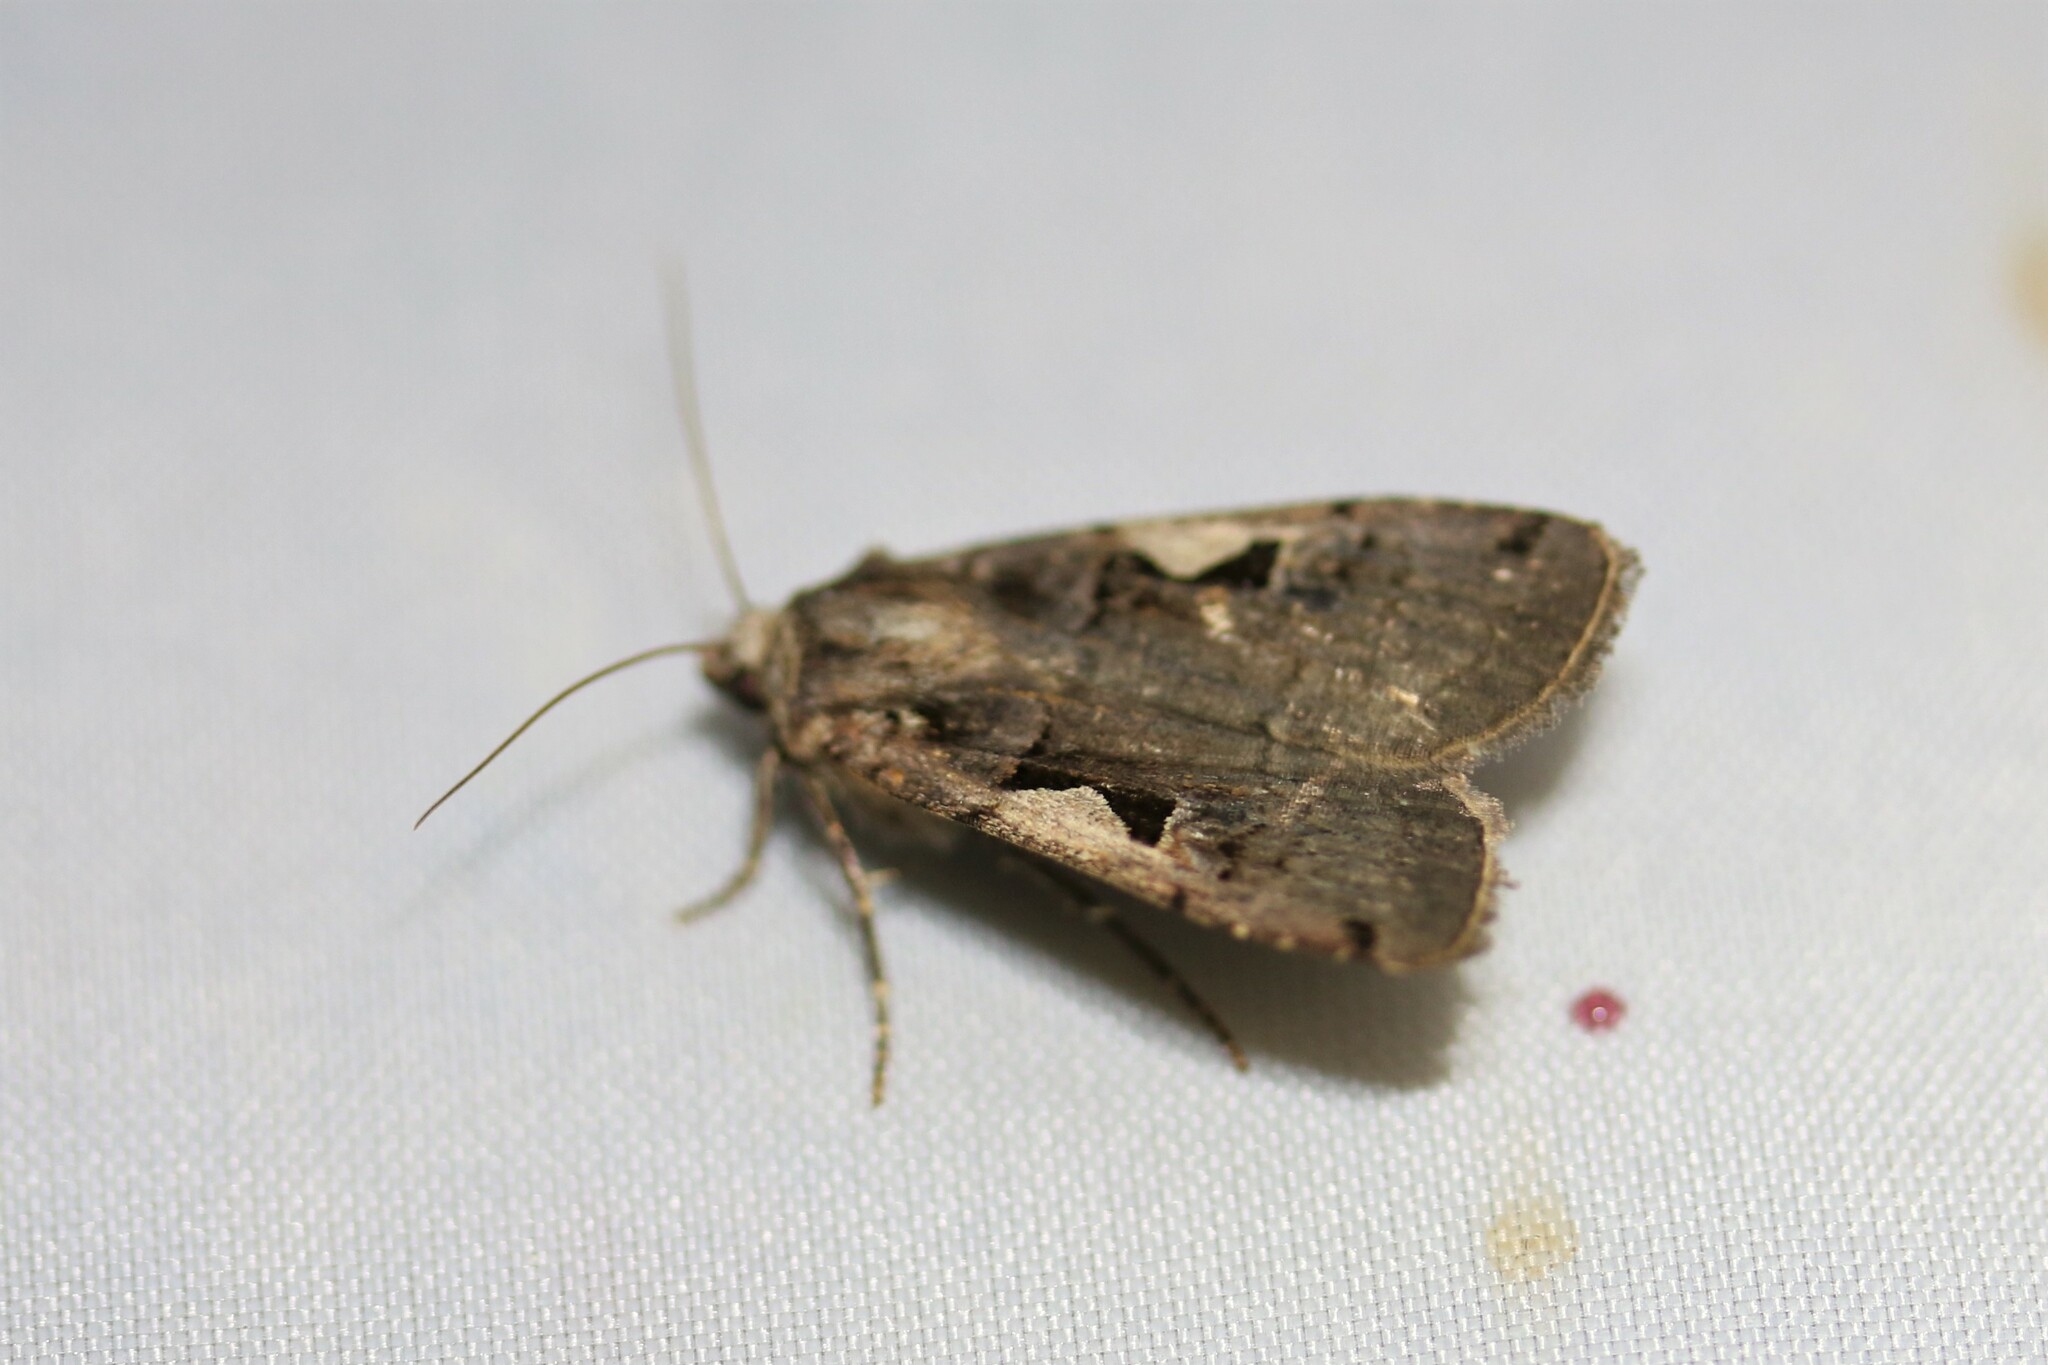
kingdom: Animalia
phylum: Arthropoda
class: Insecta
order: Lepidoptera
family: Noctuidae
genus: Xestia
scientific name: Xestia c-nigrum
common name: Setaceous hebrew character
